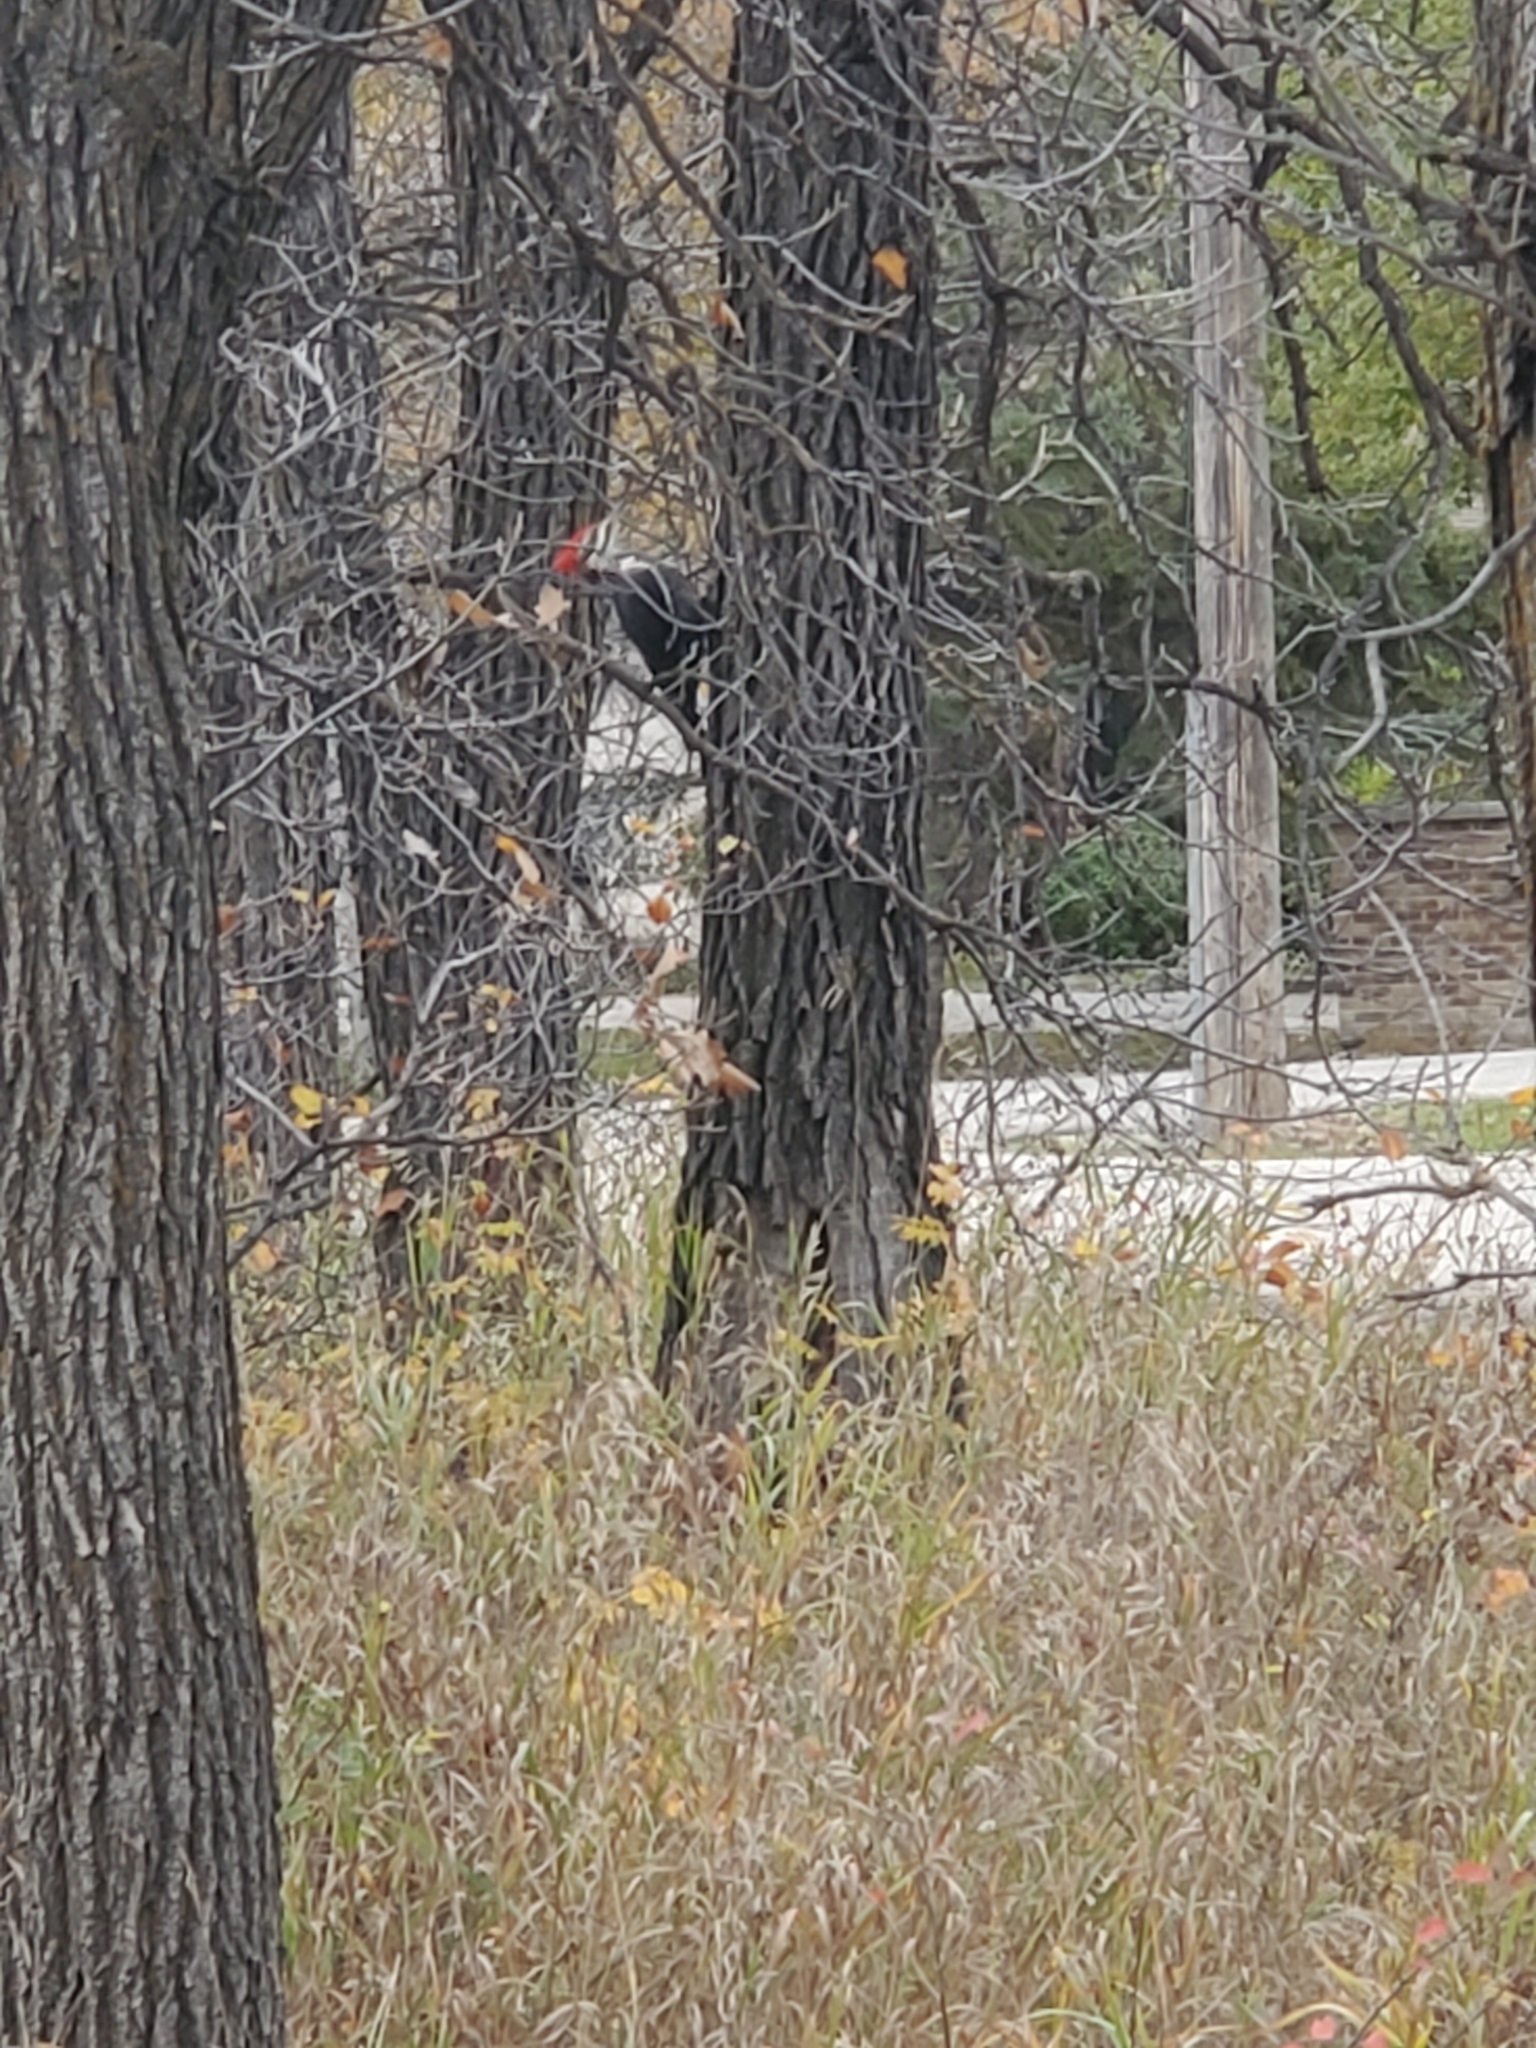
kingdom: Animalia
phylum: Chordata
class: Aves
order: Piciformes
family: Picidae
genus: Dryocopus
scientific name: Dryocopus pileatus
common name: Pileated woodpecker
